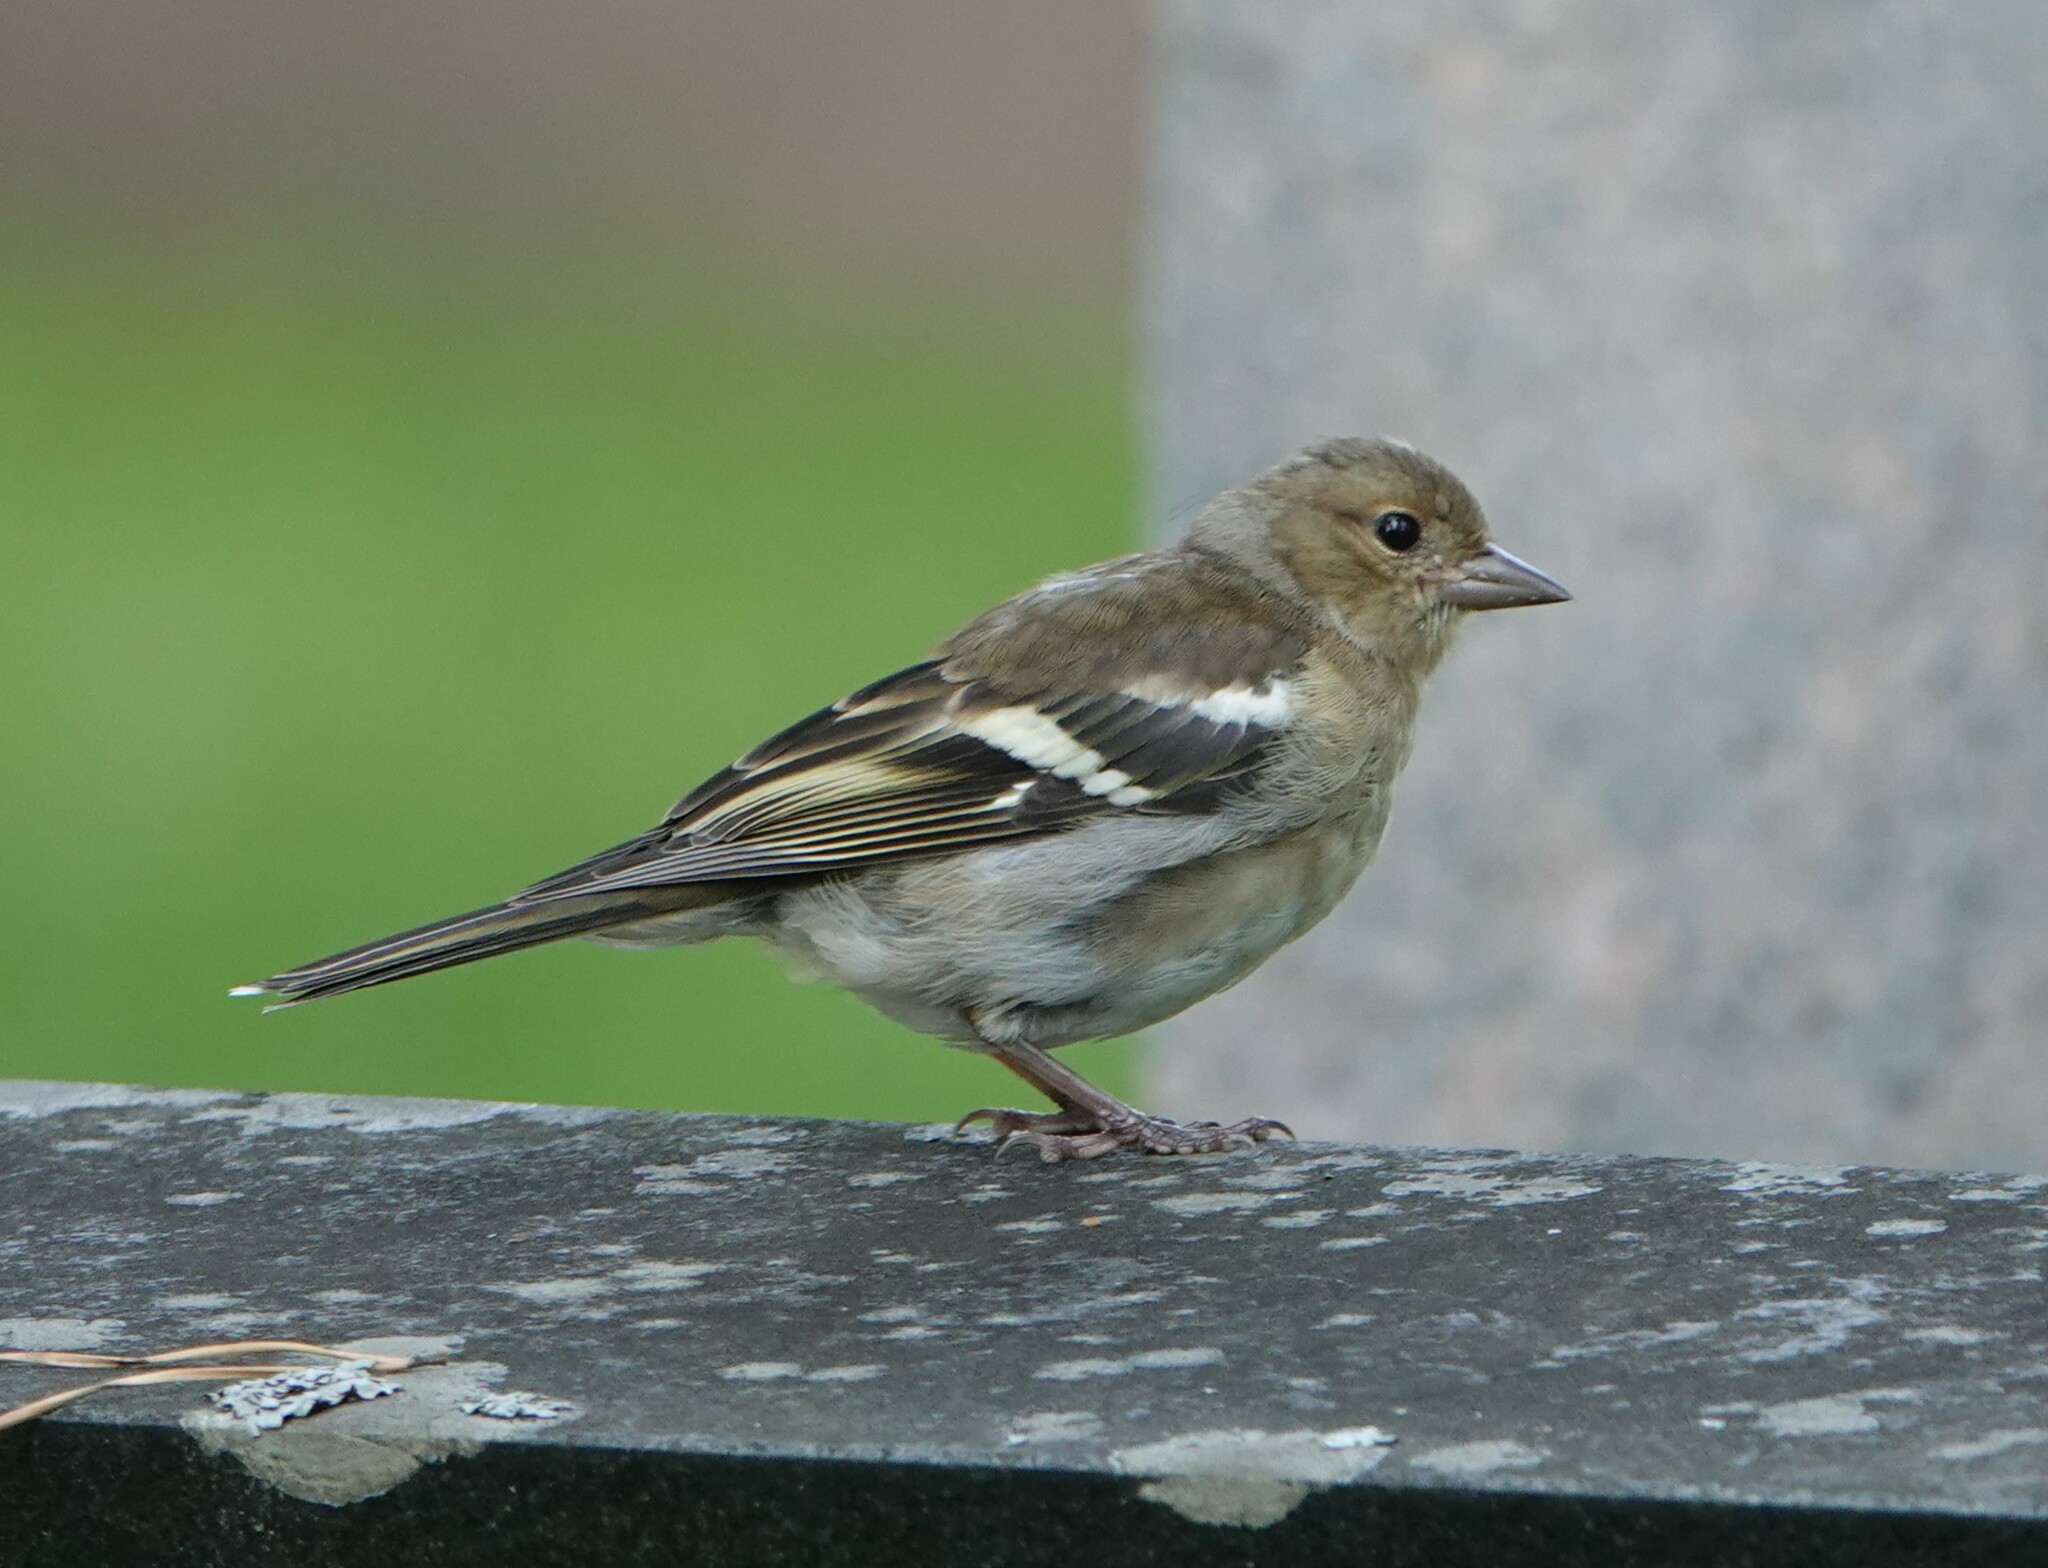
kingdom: Animalia
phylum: Chordata
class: Aves
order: Passeriformes
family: Fringillidae
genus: Fringilla
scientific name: Fringilla coelebs
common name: Common chaffinch
